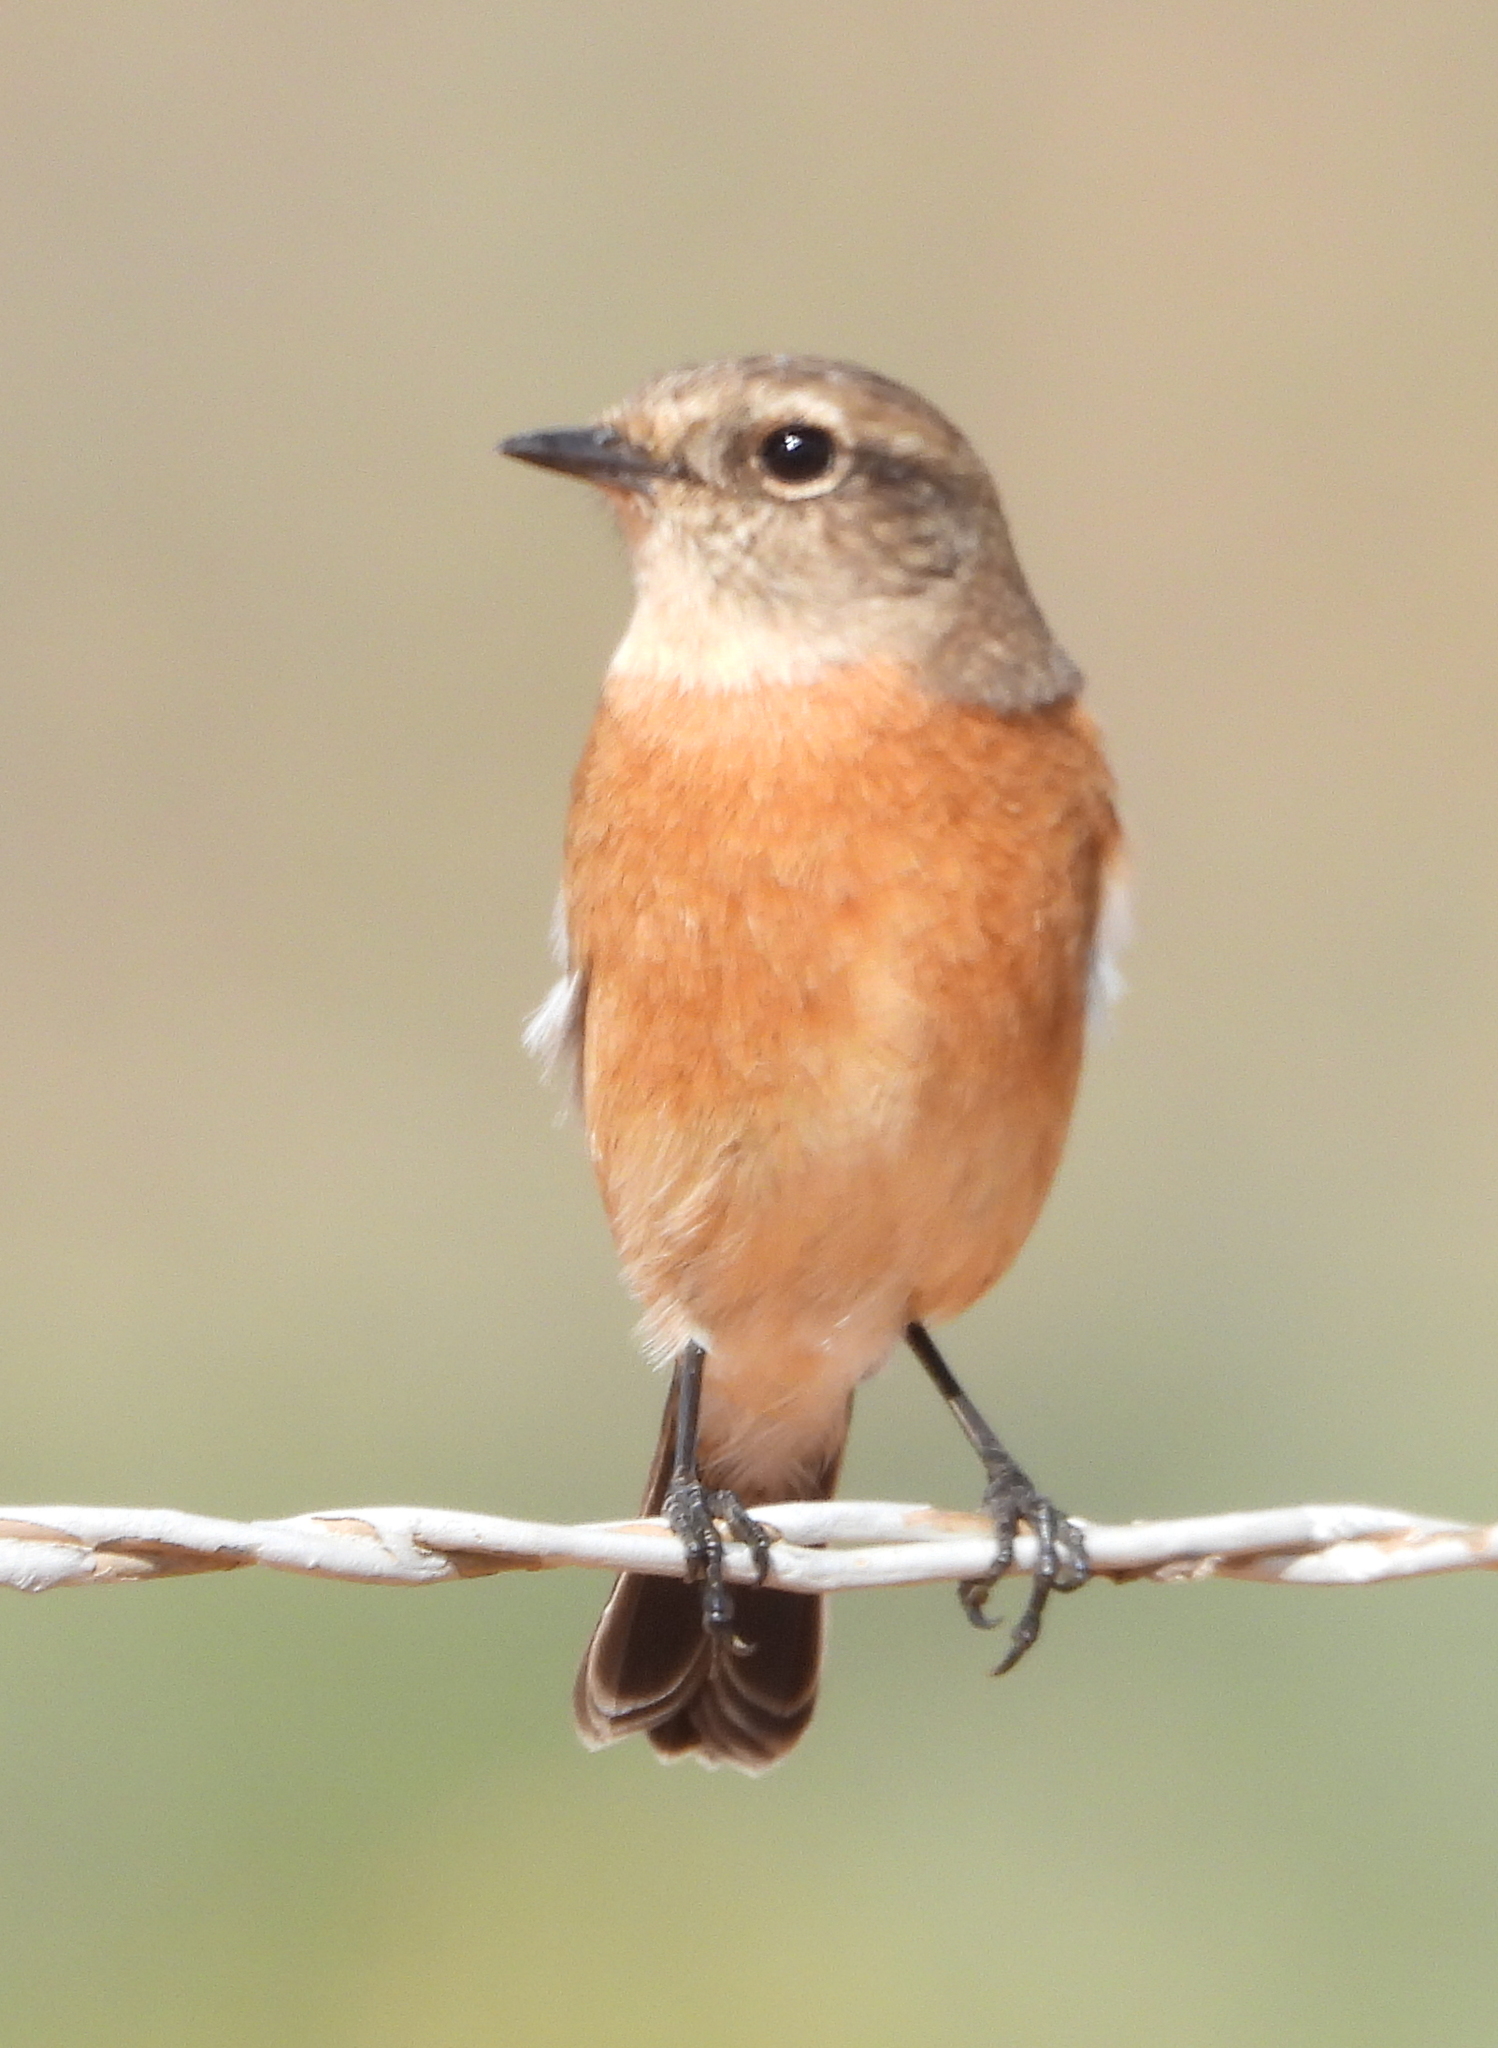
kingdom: Animalia
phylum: Chordata
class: Aves
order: Passeriformes
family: Muscicapidae
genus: Saxicola
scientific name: Saxicola torquatus
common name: African stonechat
